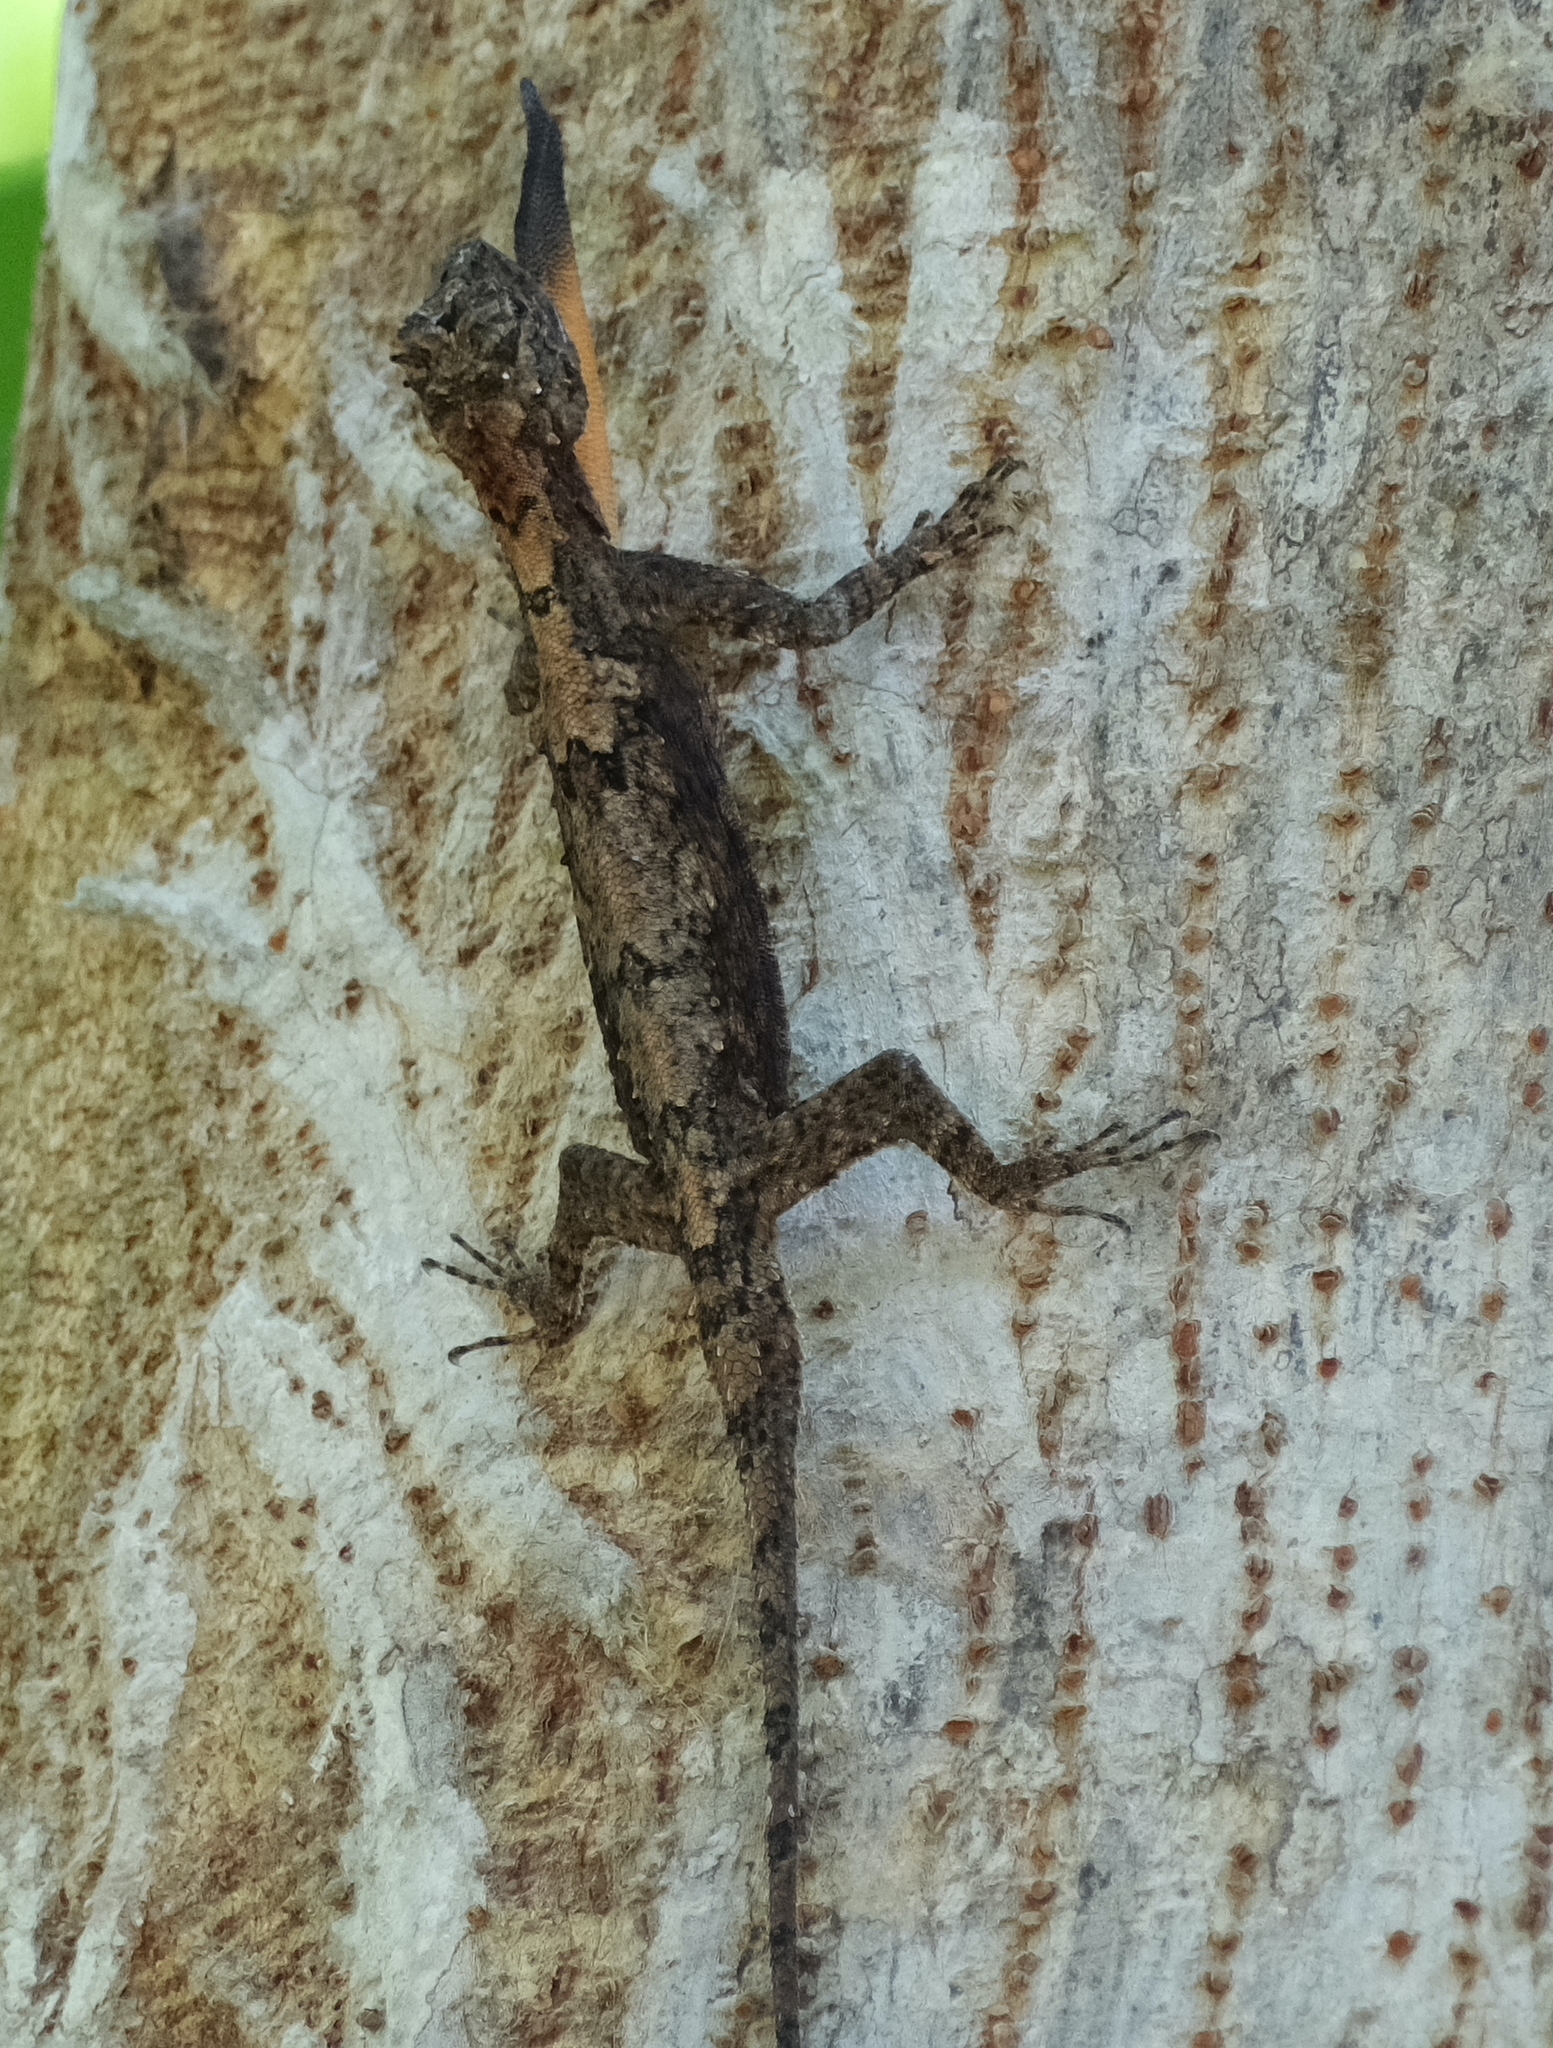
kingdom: Animalia
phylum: Chordata
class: Squamata
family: Agamidae
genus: Draco
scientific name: Draco maculatus
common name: Spotted flying dragon
